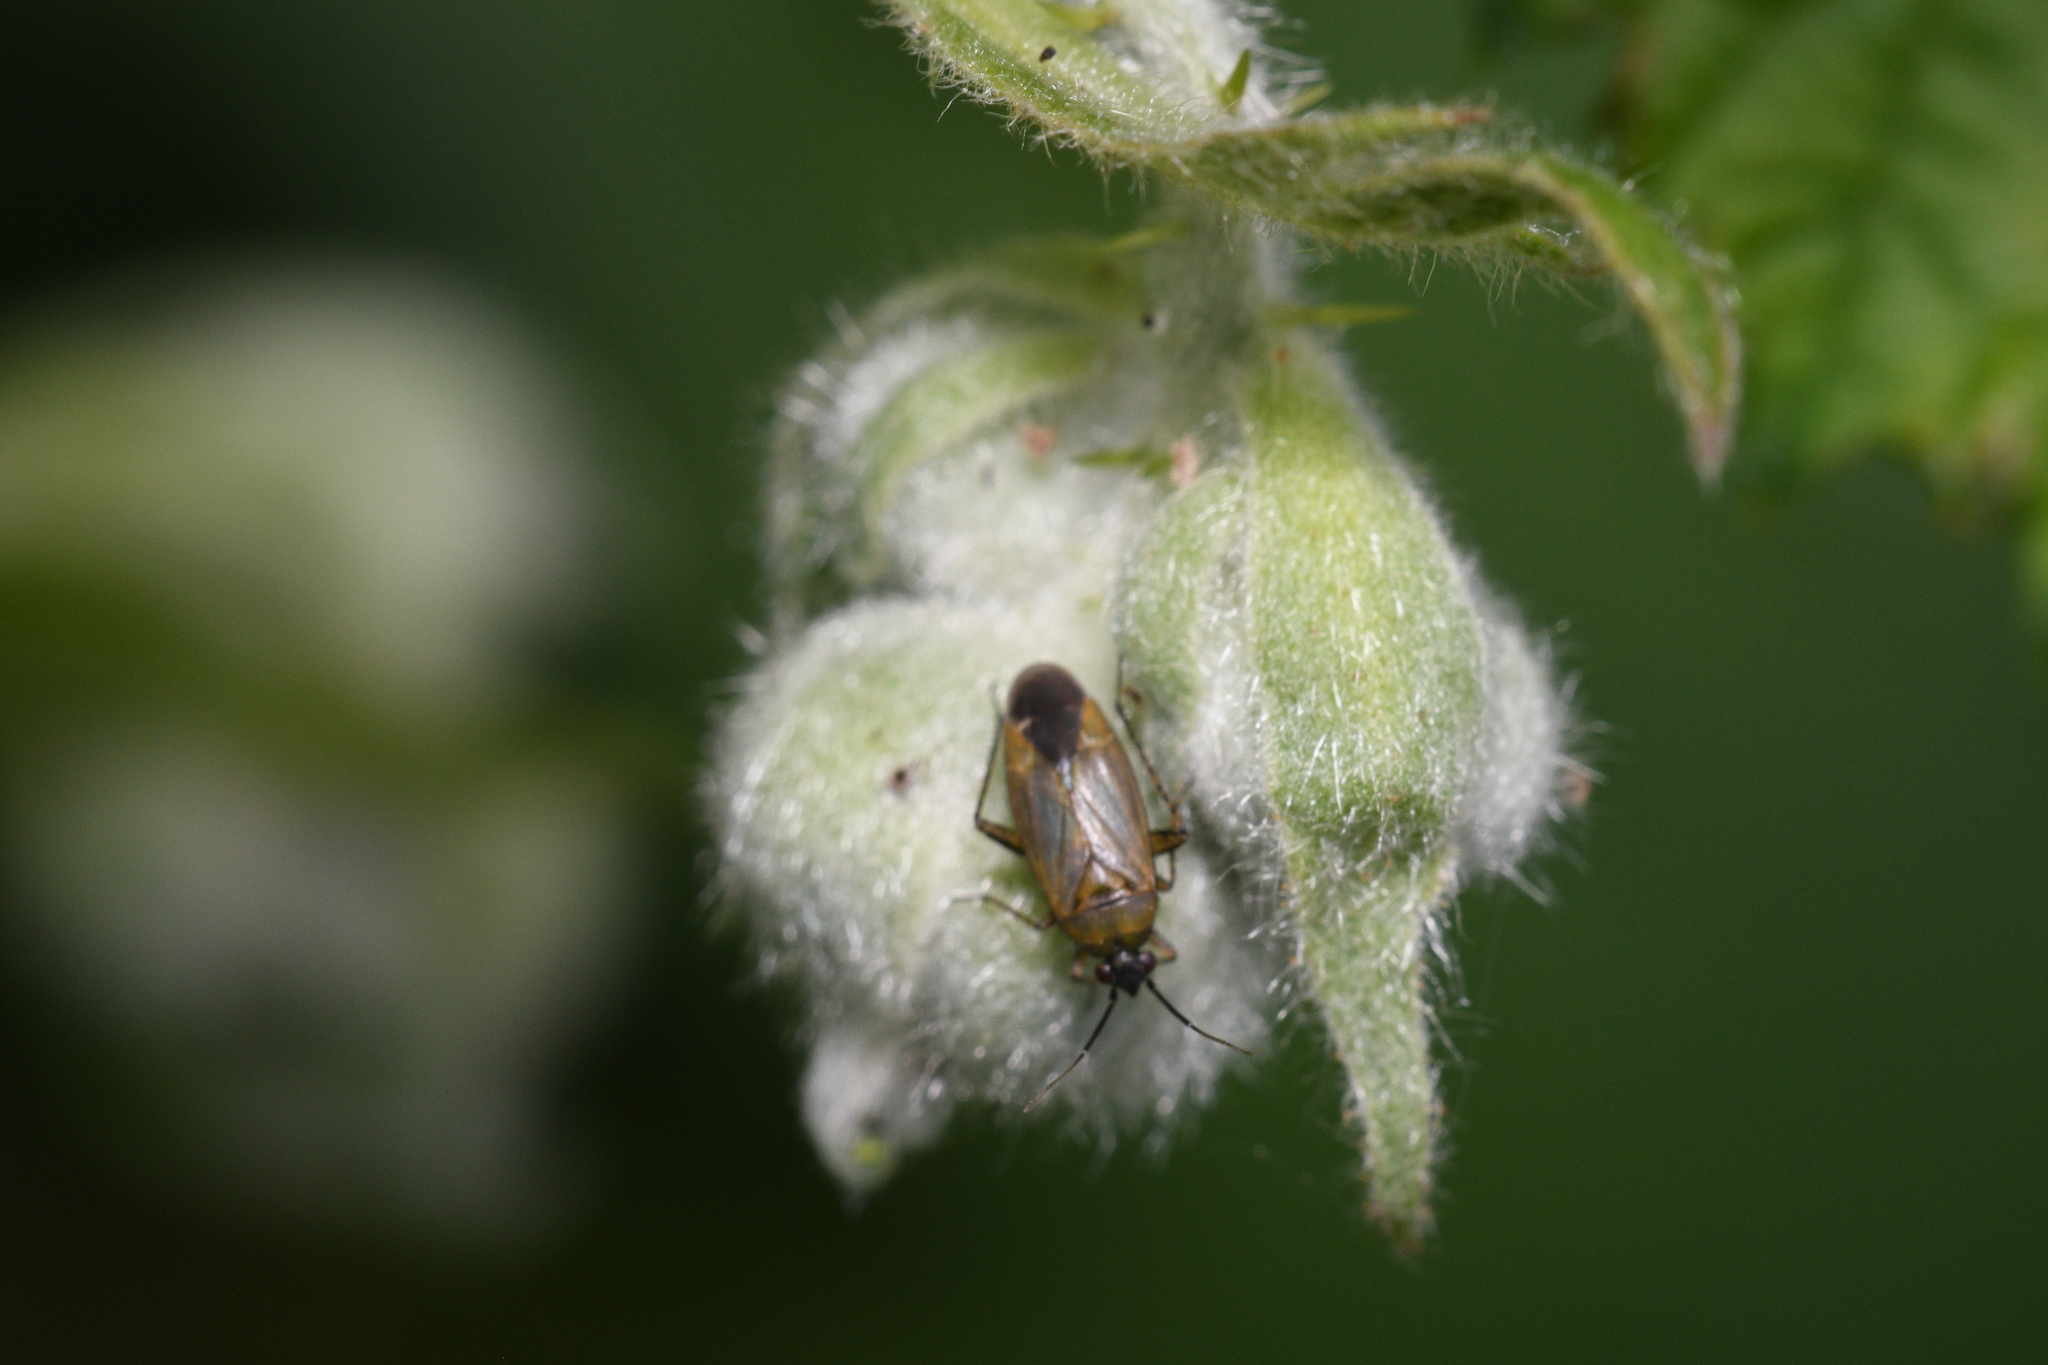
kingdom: Animalia
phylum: Arthropoda
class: Insecta
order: Hemiptera
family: Miridae
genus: Plagiognathus
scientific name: Plagiognathus arbustorum
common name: Plant bug
